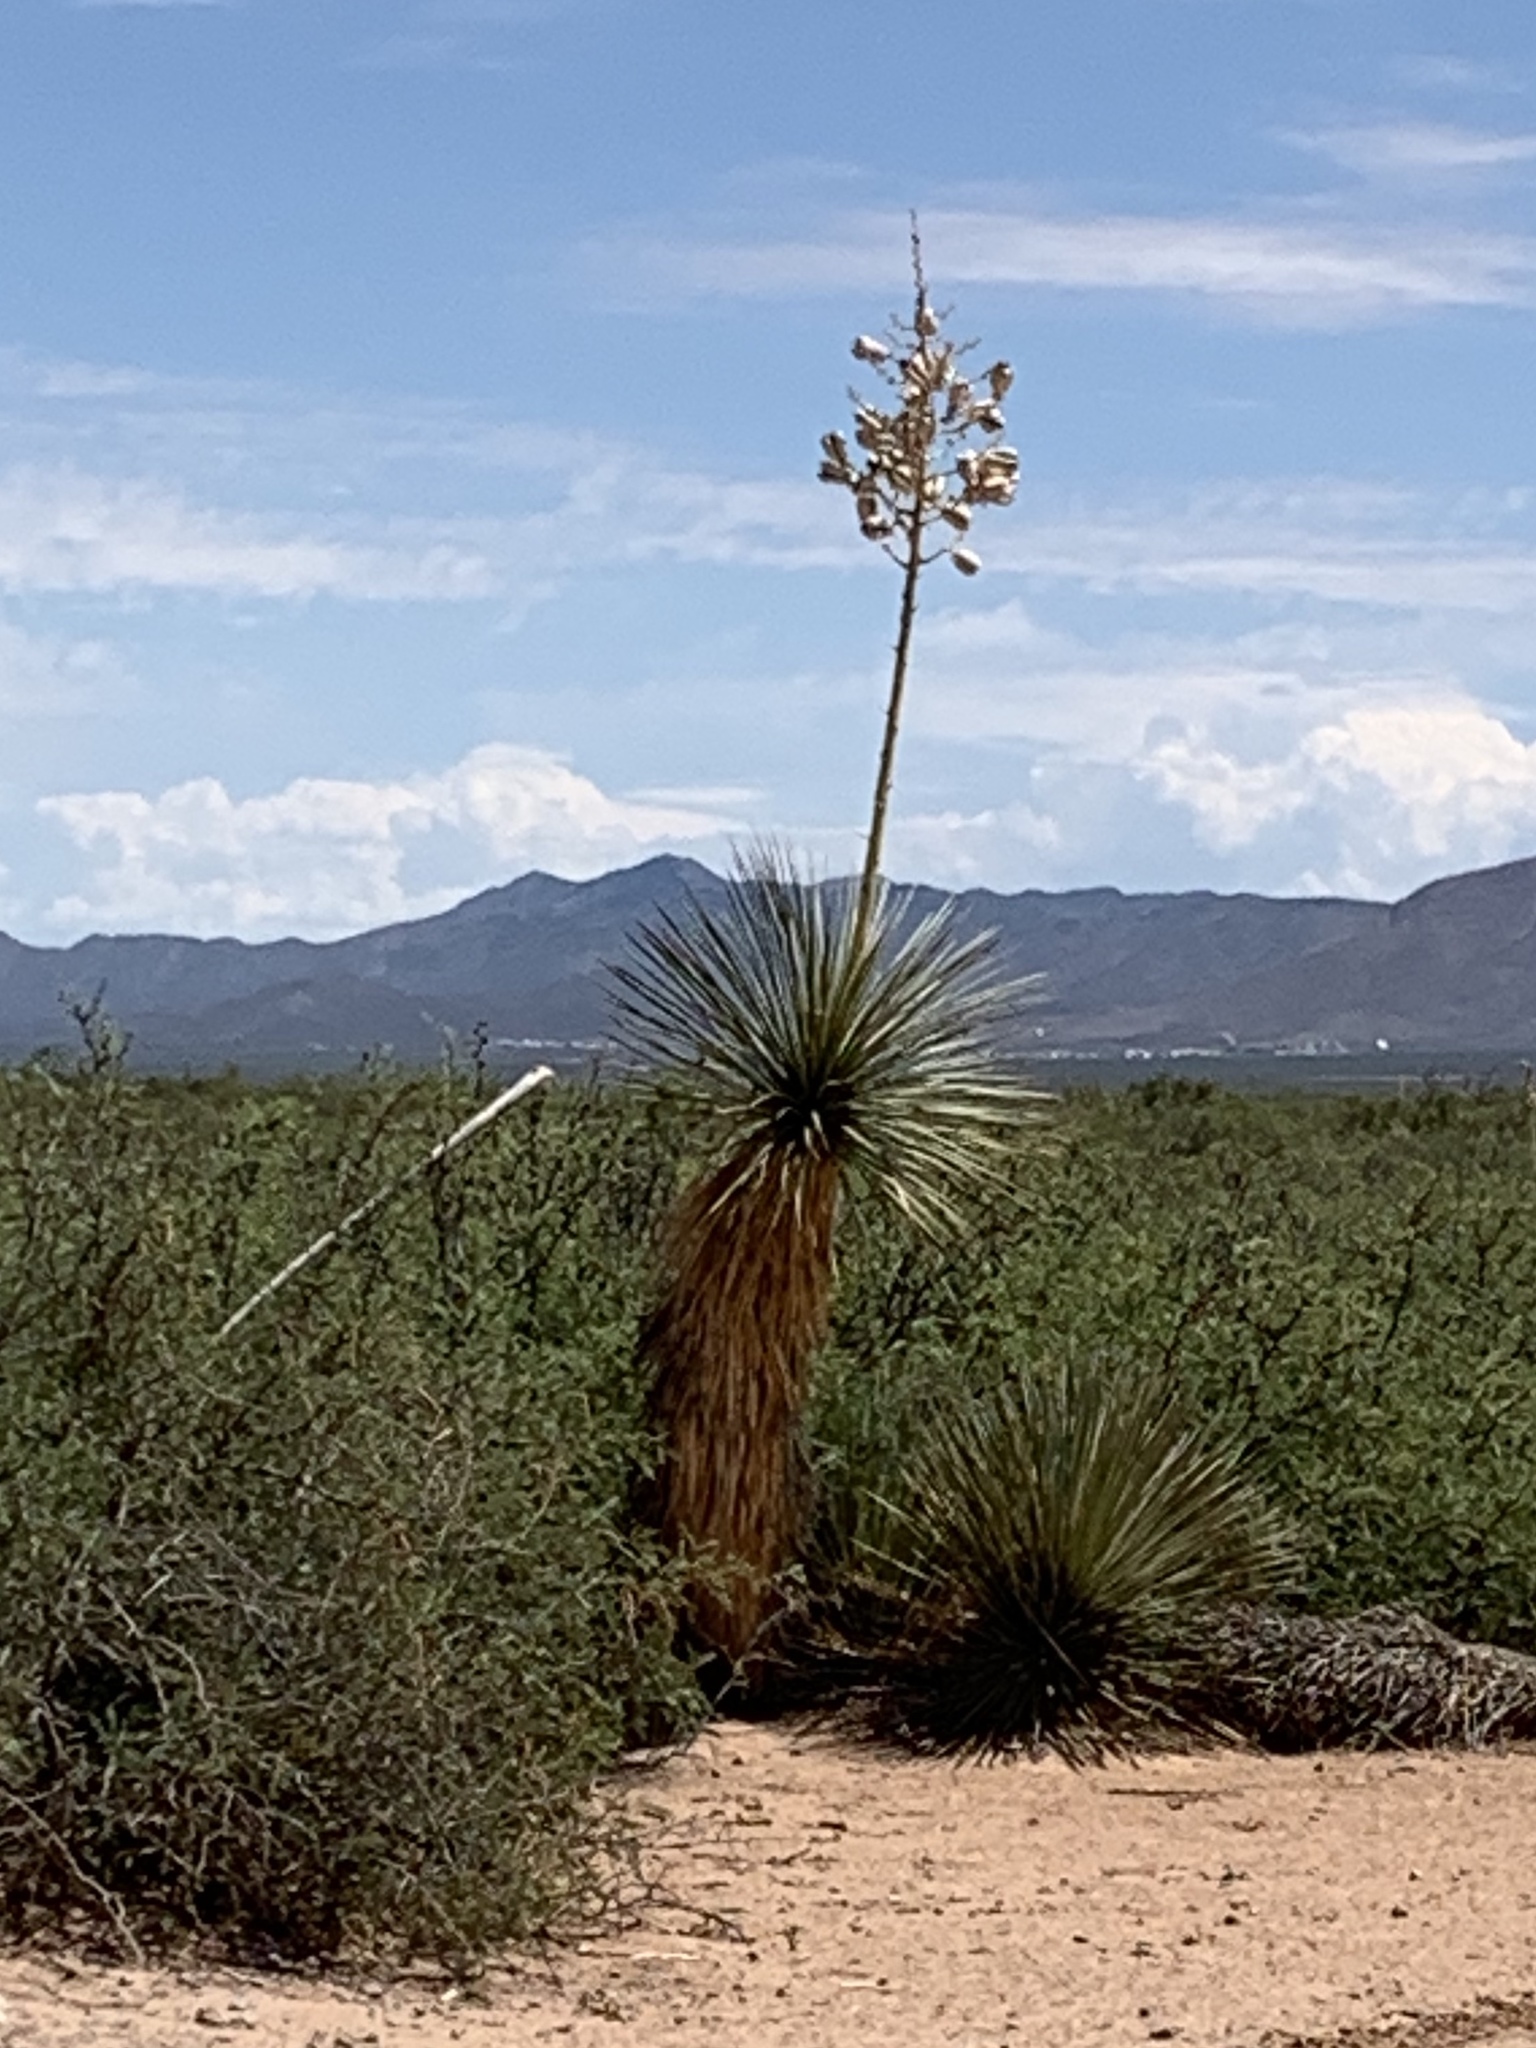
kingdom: Plantae
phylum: Tracheophyta
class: Liliopsida
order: Asparagales
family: Asparagaceae
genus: Yucca
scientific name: Yucca elata
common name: Palmella
